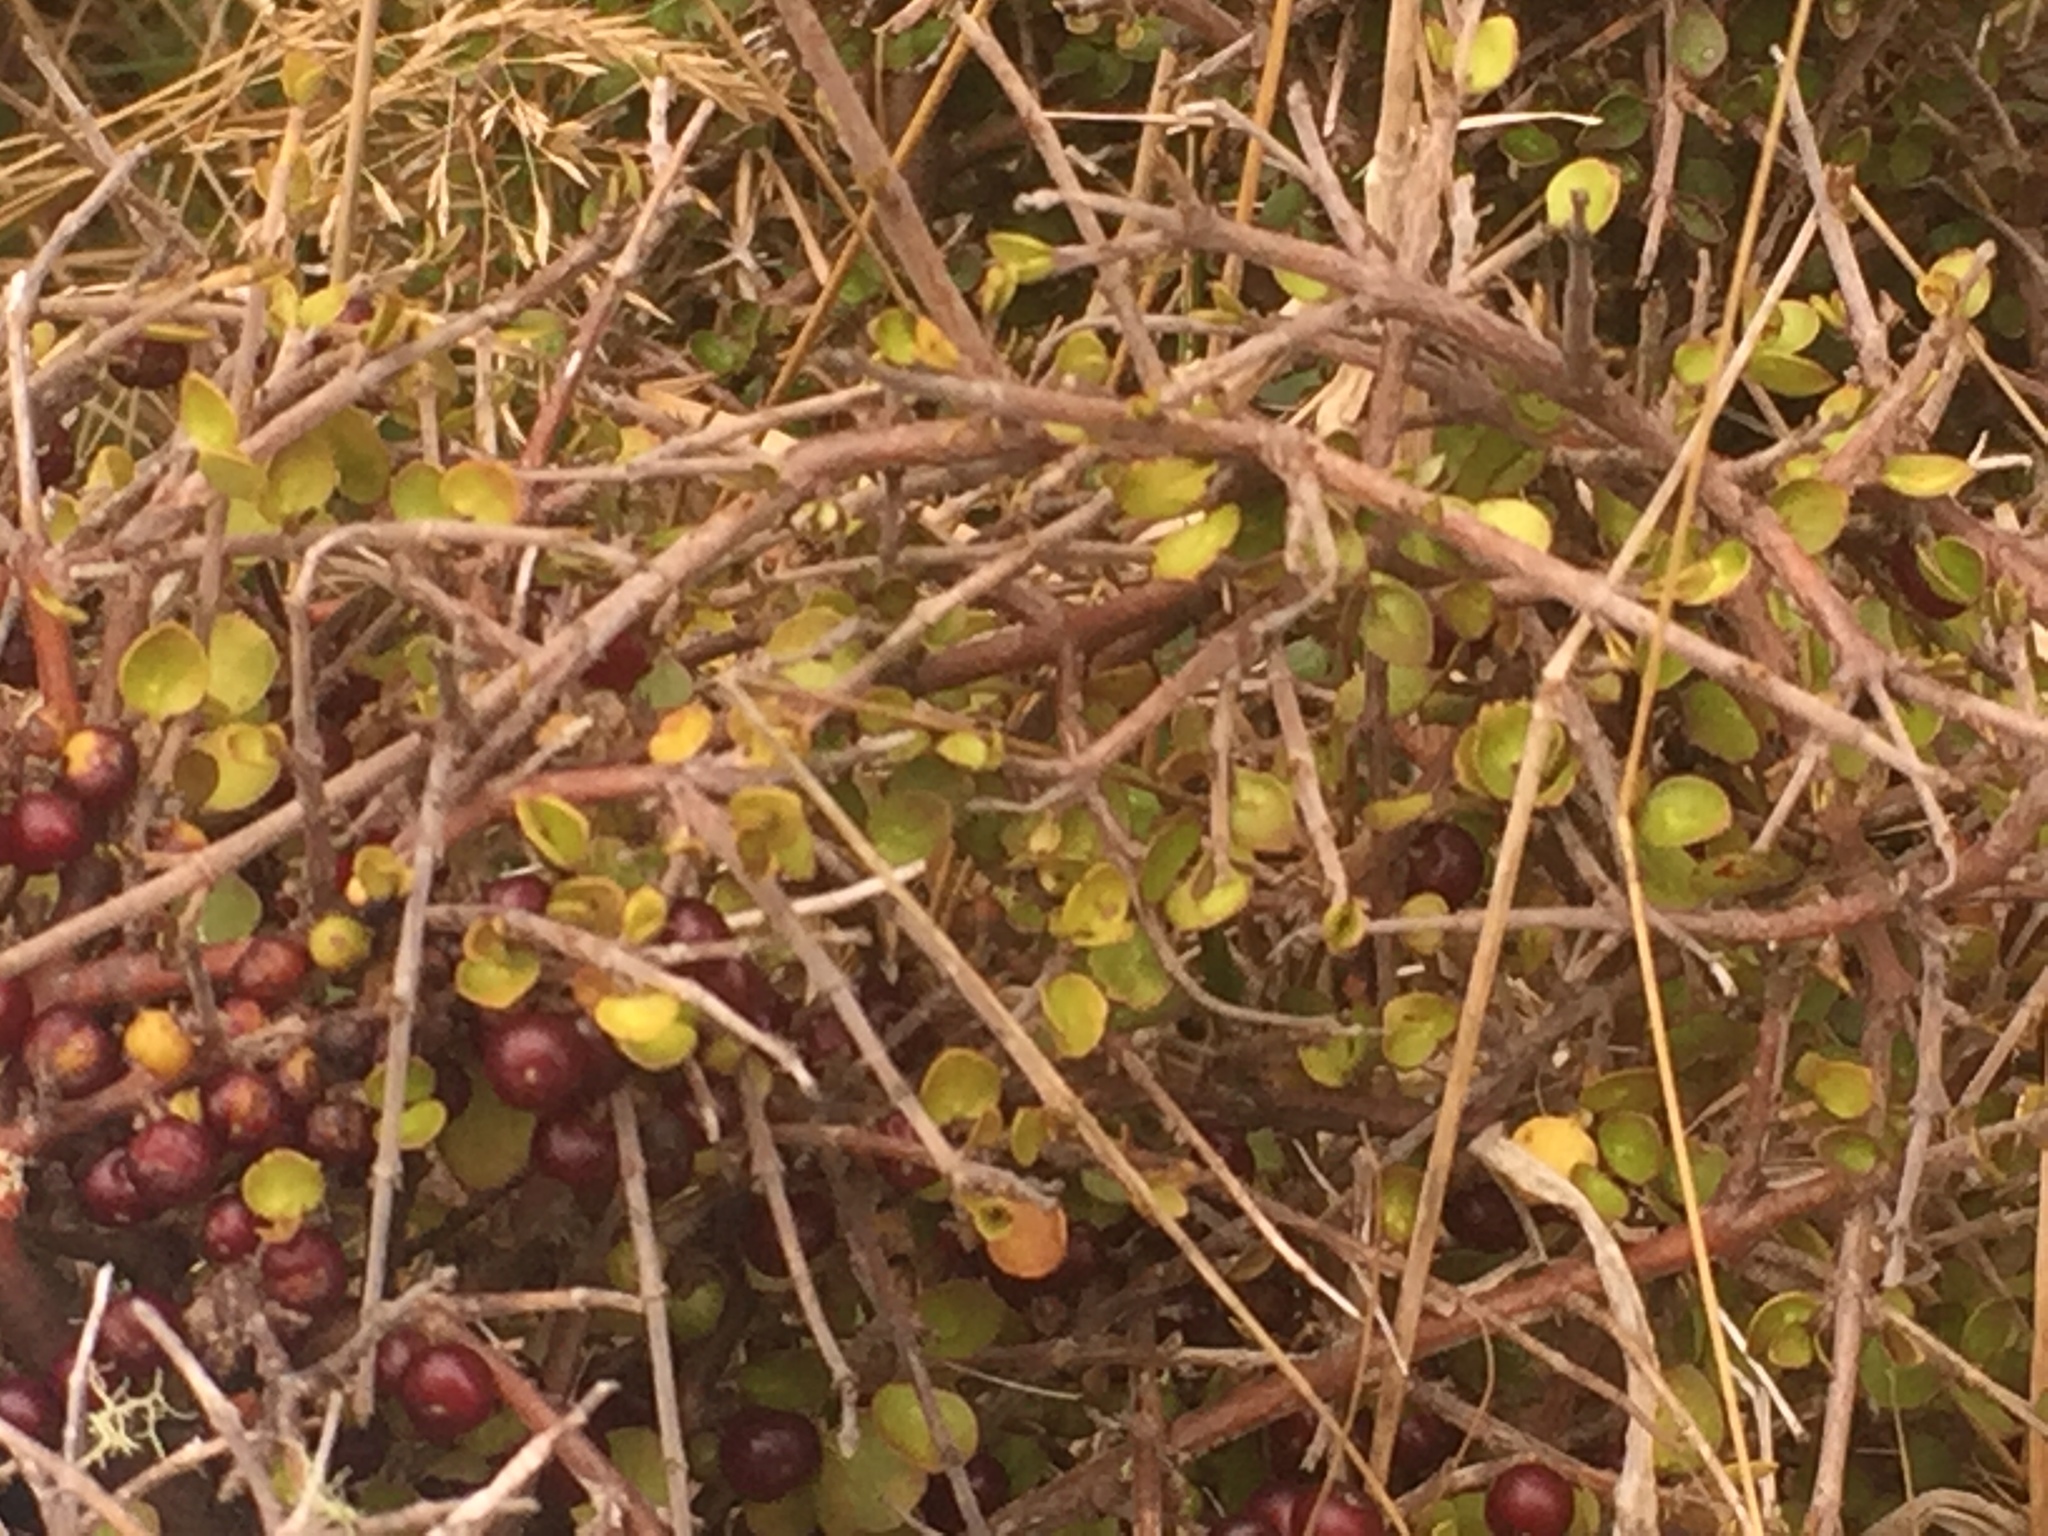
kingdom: Plantae
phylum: Tracheophyta
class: Magnoliopsida
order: Gentianales
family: Rubiaceae
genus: Coprosma
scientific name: Coprosma rhamnoides
